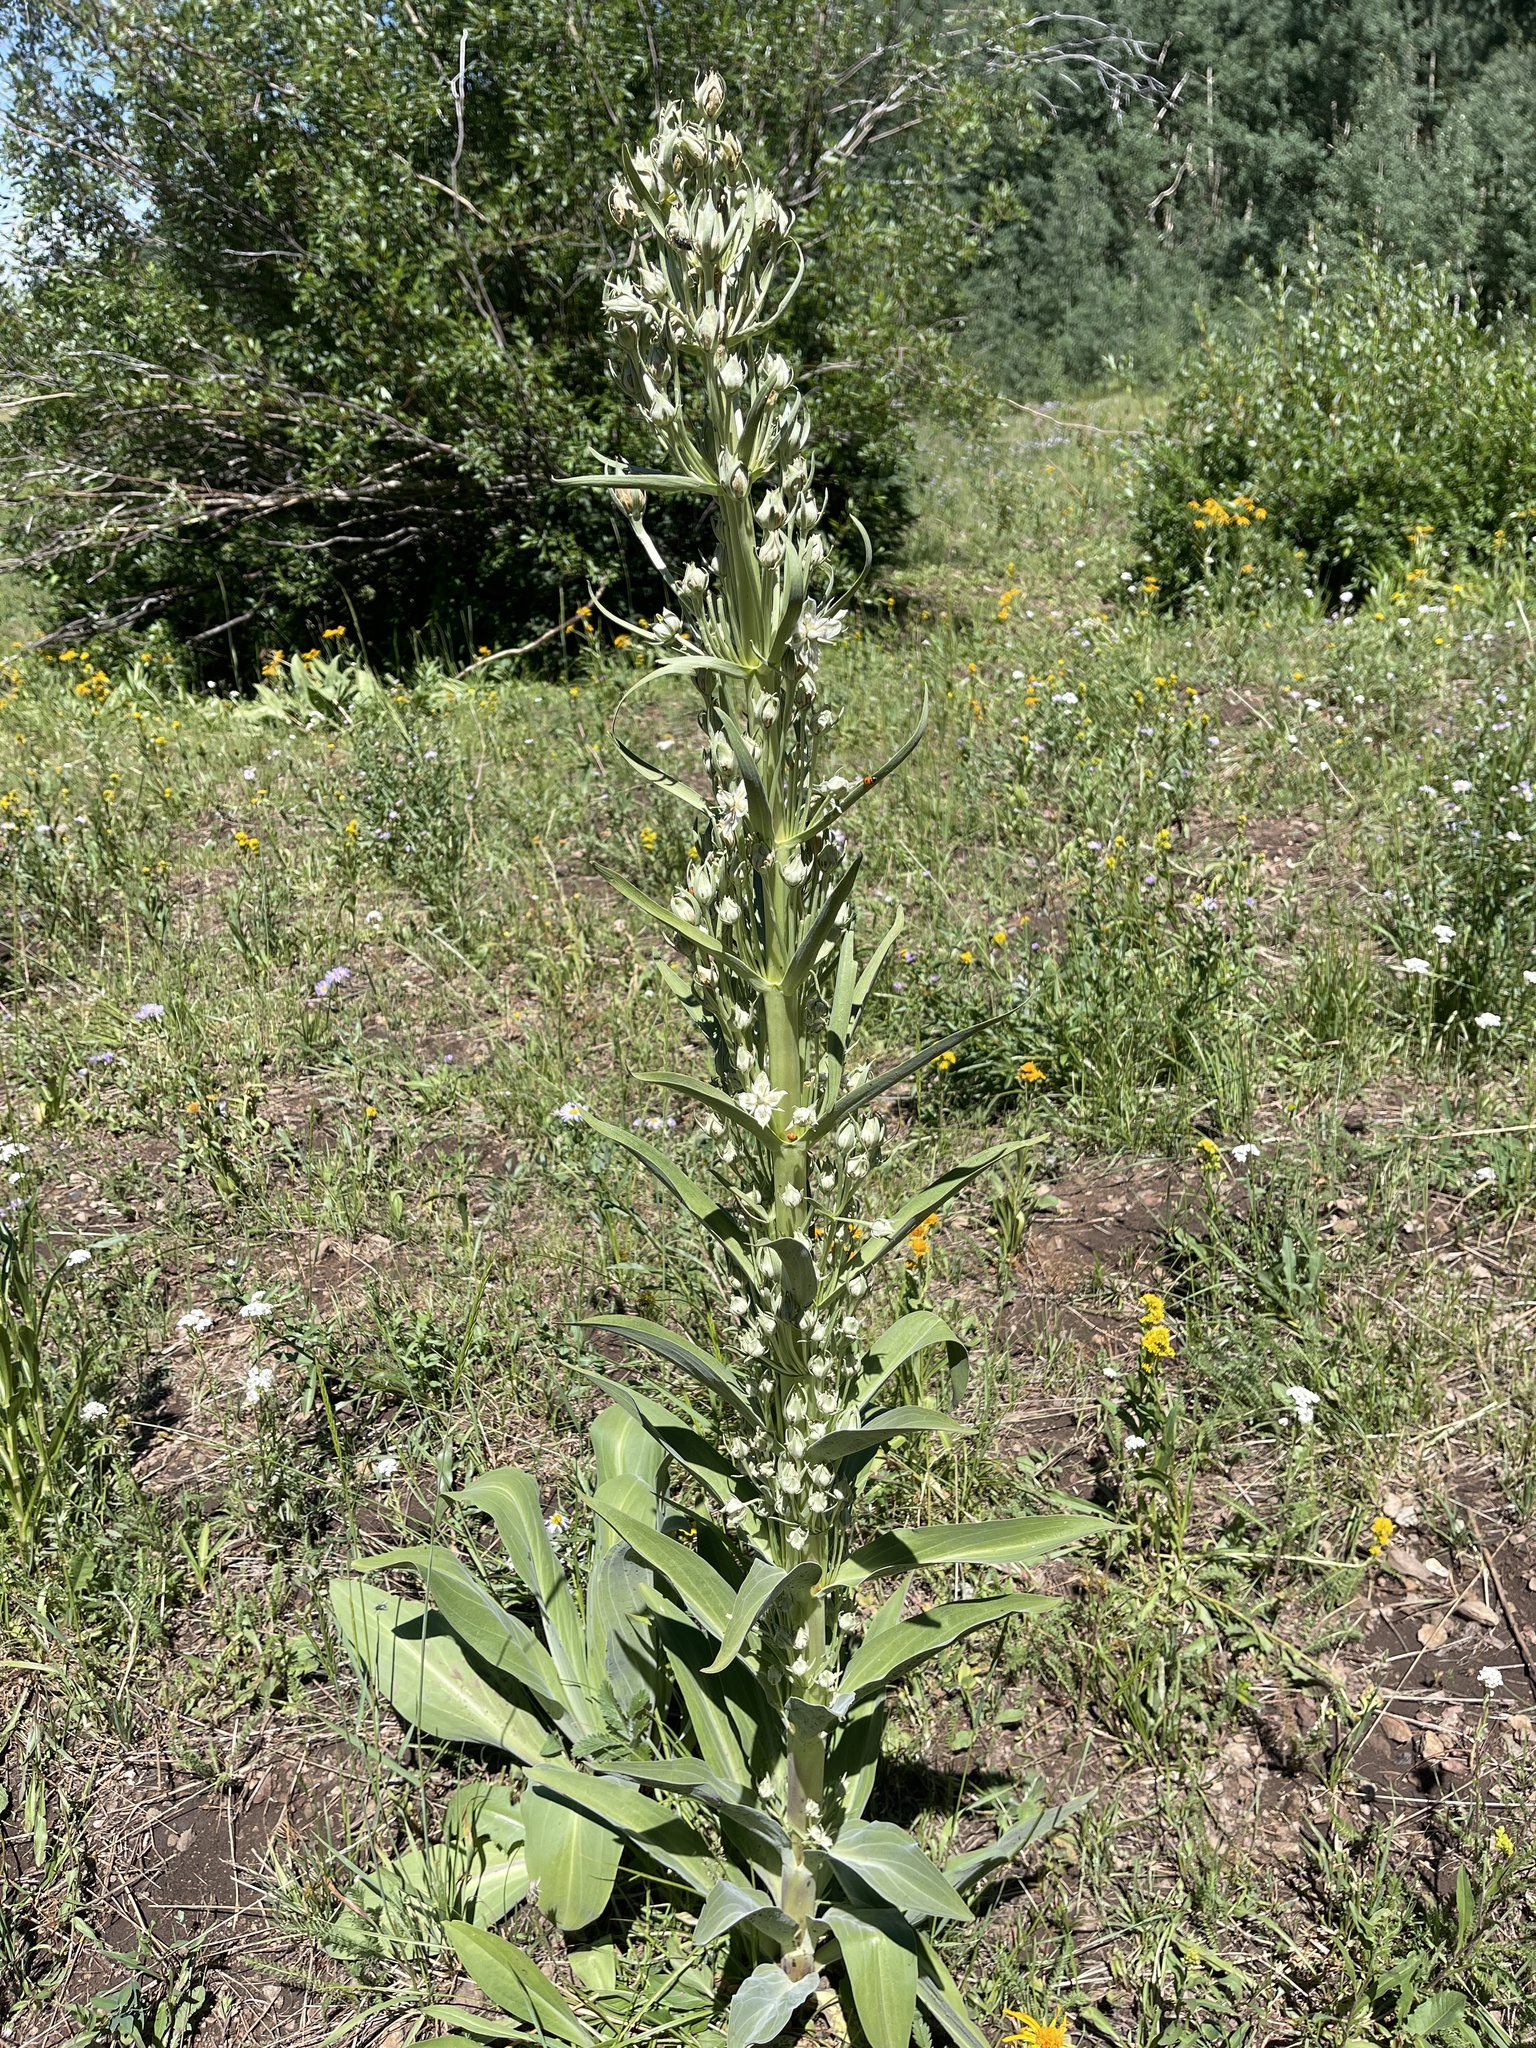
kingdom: Plantae
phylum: Tracheophyta
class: Magnoliopsida
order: Gentianales
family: Gentianaceae
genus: Frasera
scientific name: Frasera speciosa
